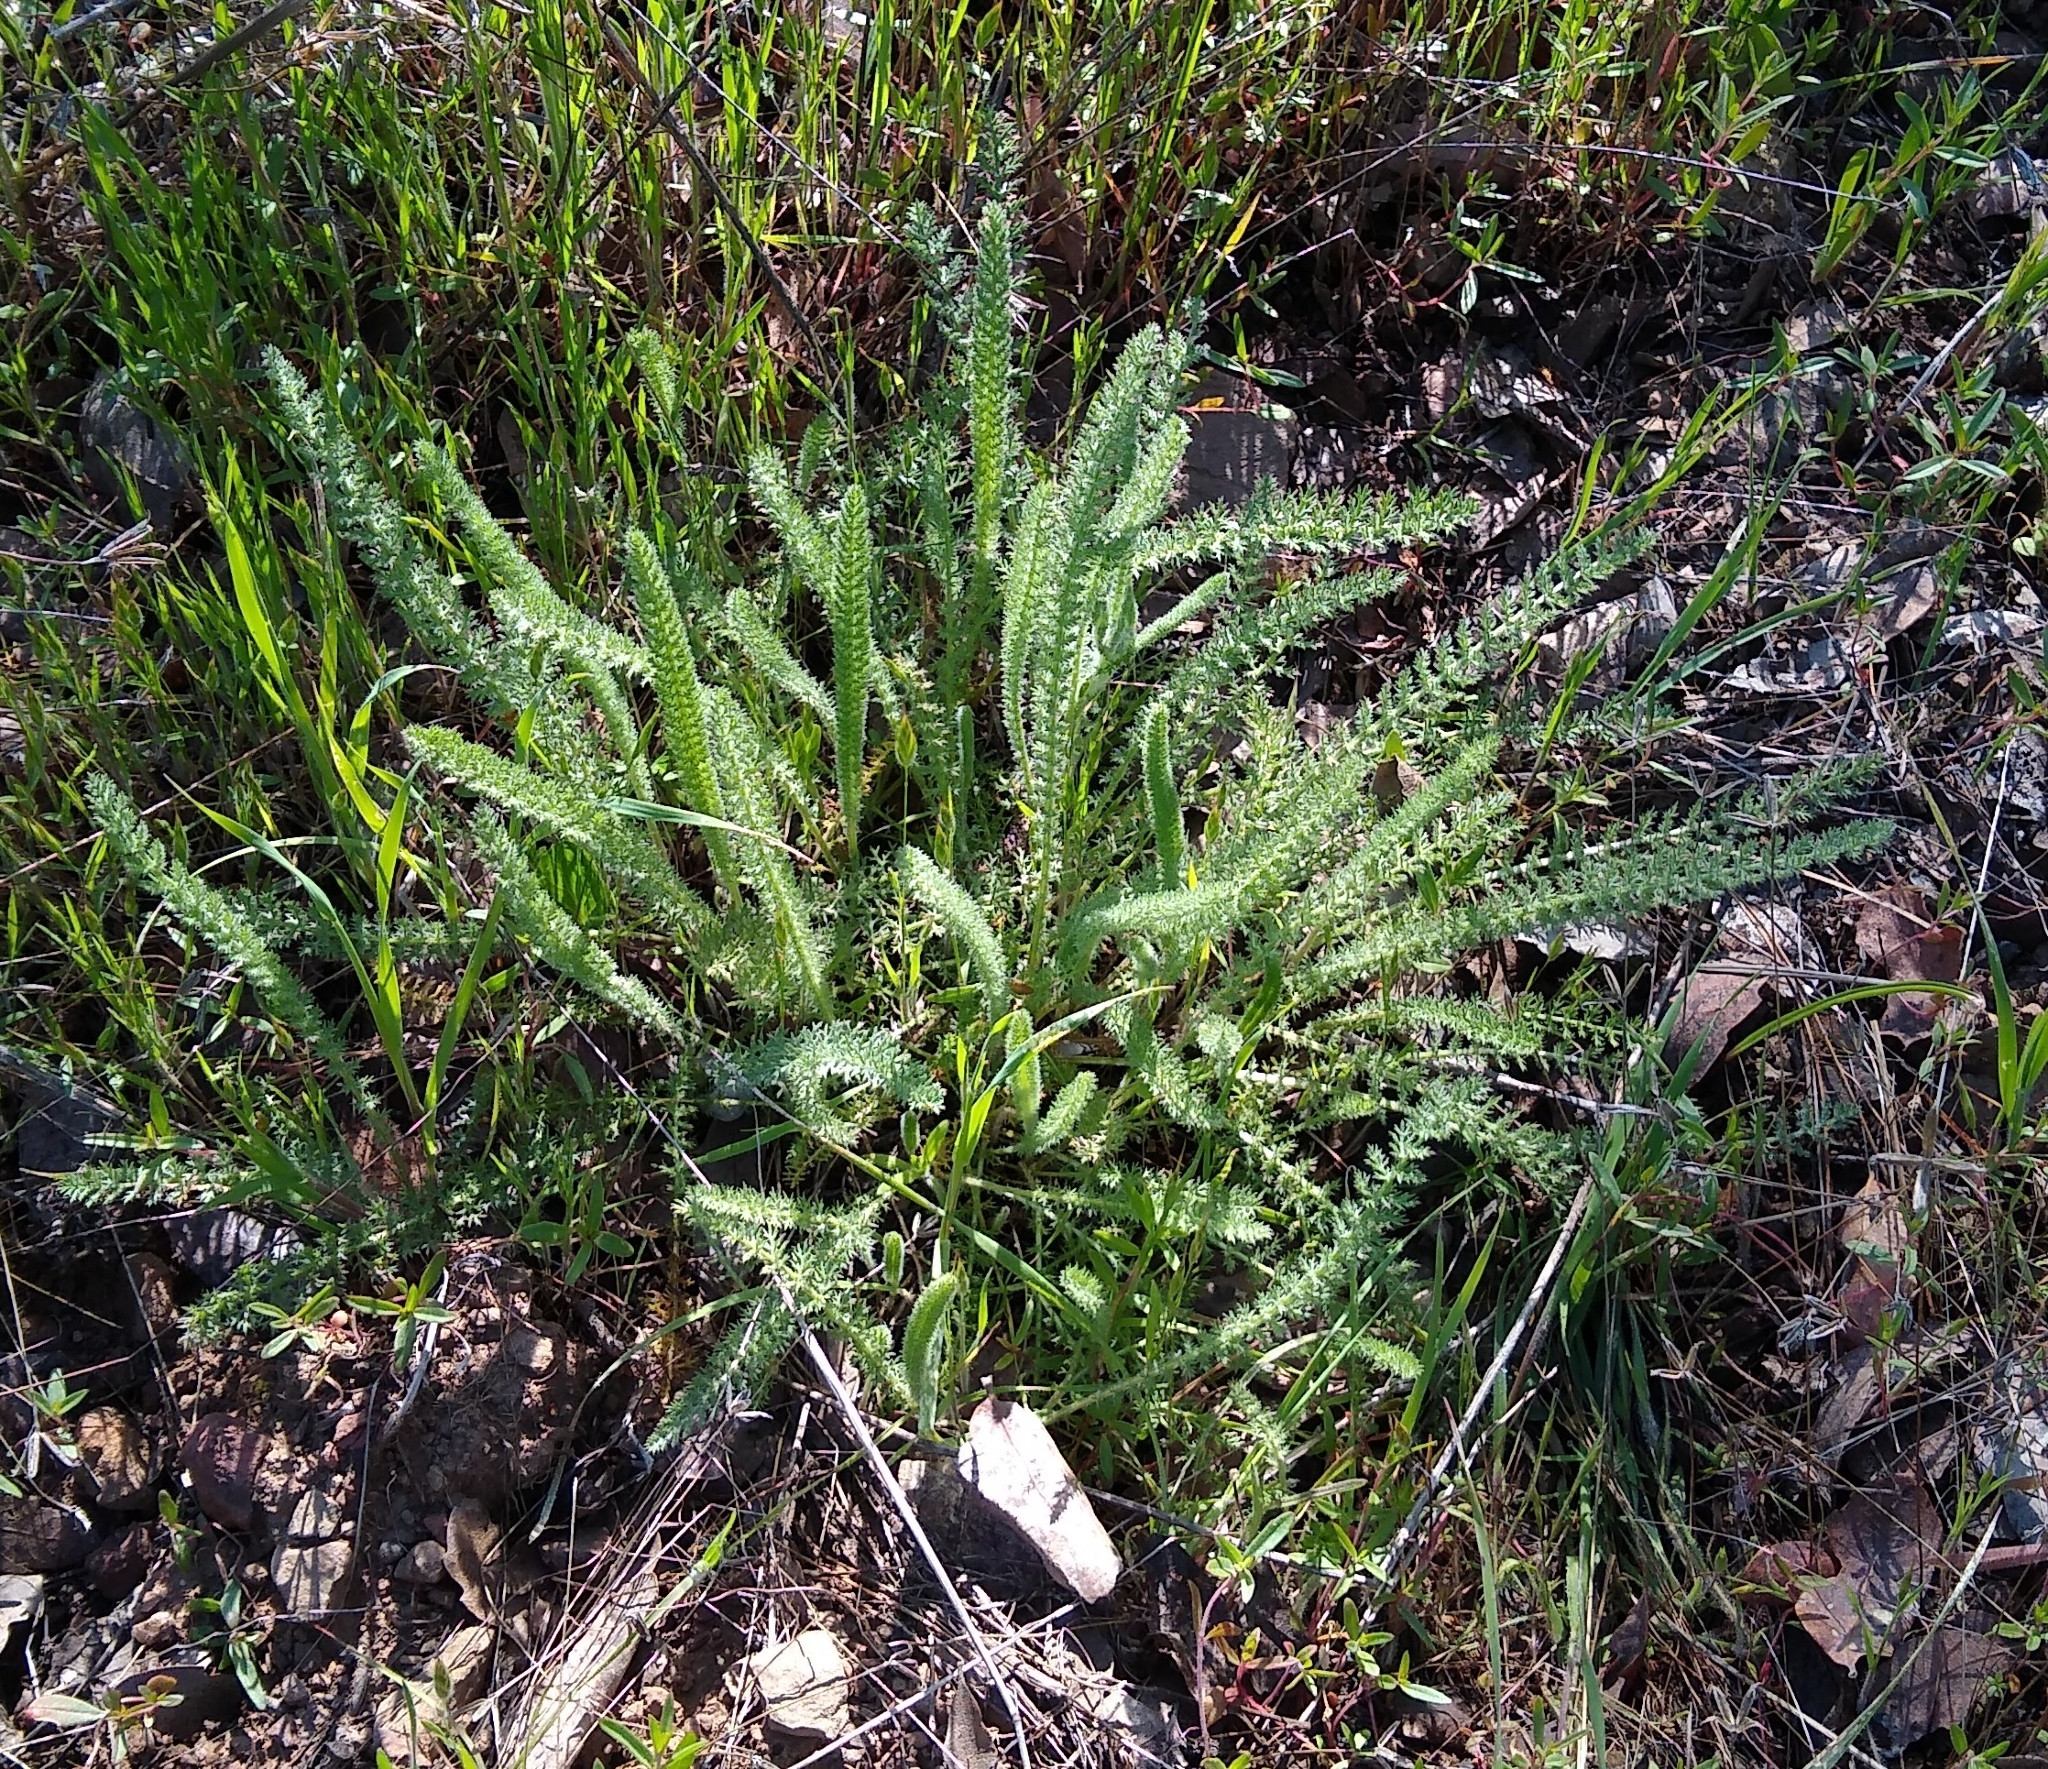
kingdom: Plantae
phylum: Tracheophyta
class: Magnoliopsida
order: Asterales
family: Asteraceae
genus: Achillea
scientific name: Achillea millefolium
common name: Yarrow
